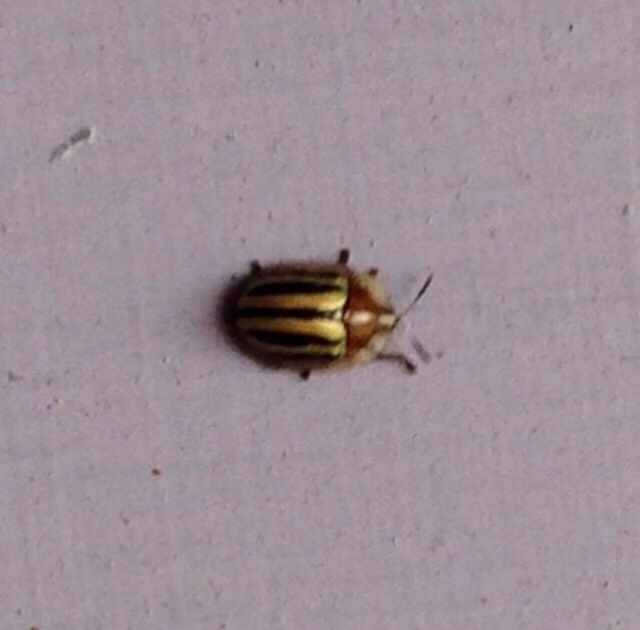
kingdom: Animalia
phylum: Arthropoda
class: Insecta
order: Coleoptera
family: Chrysomelidae
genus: Agroiconota
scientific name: Agroiconota bivittata
